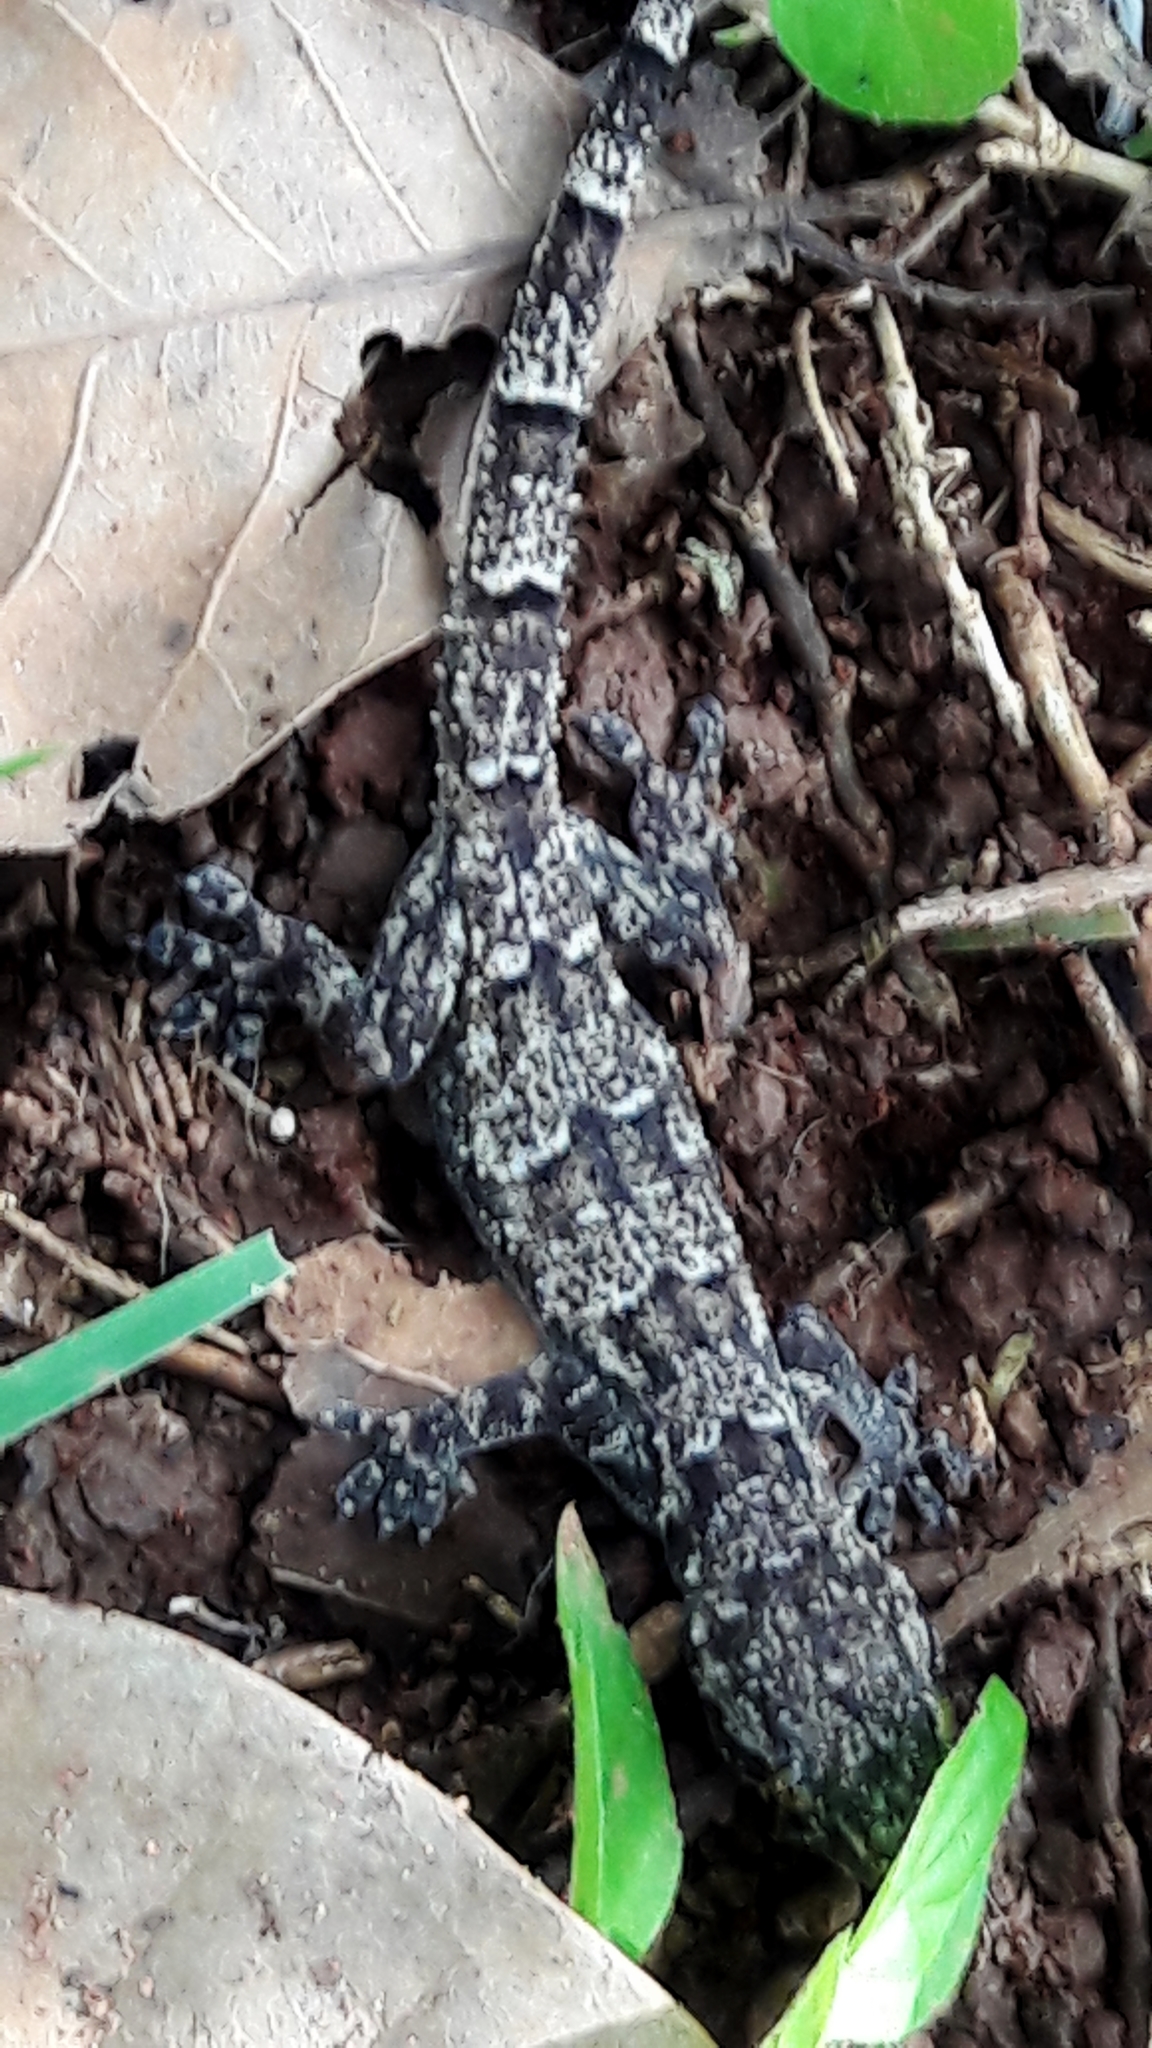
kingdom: Animalia
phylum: Chordata
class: Squamata
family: Gekkonidae
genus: Hemidactylus
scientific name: Hemidactylus mabouia
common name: House gecko
